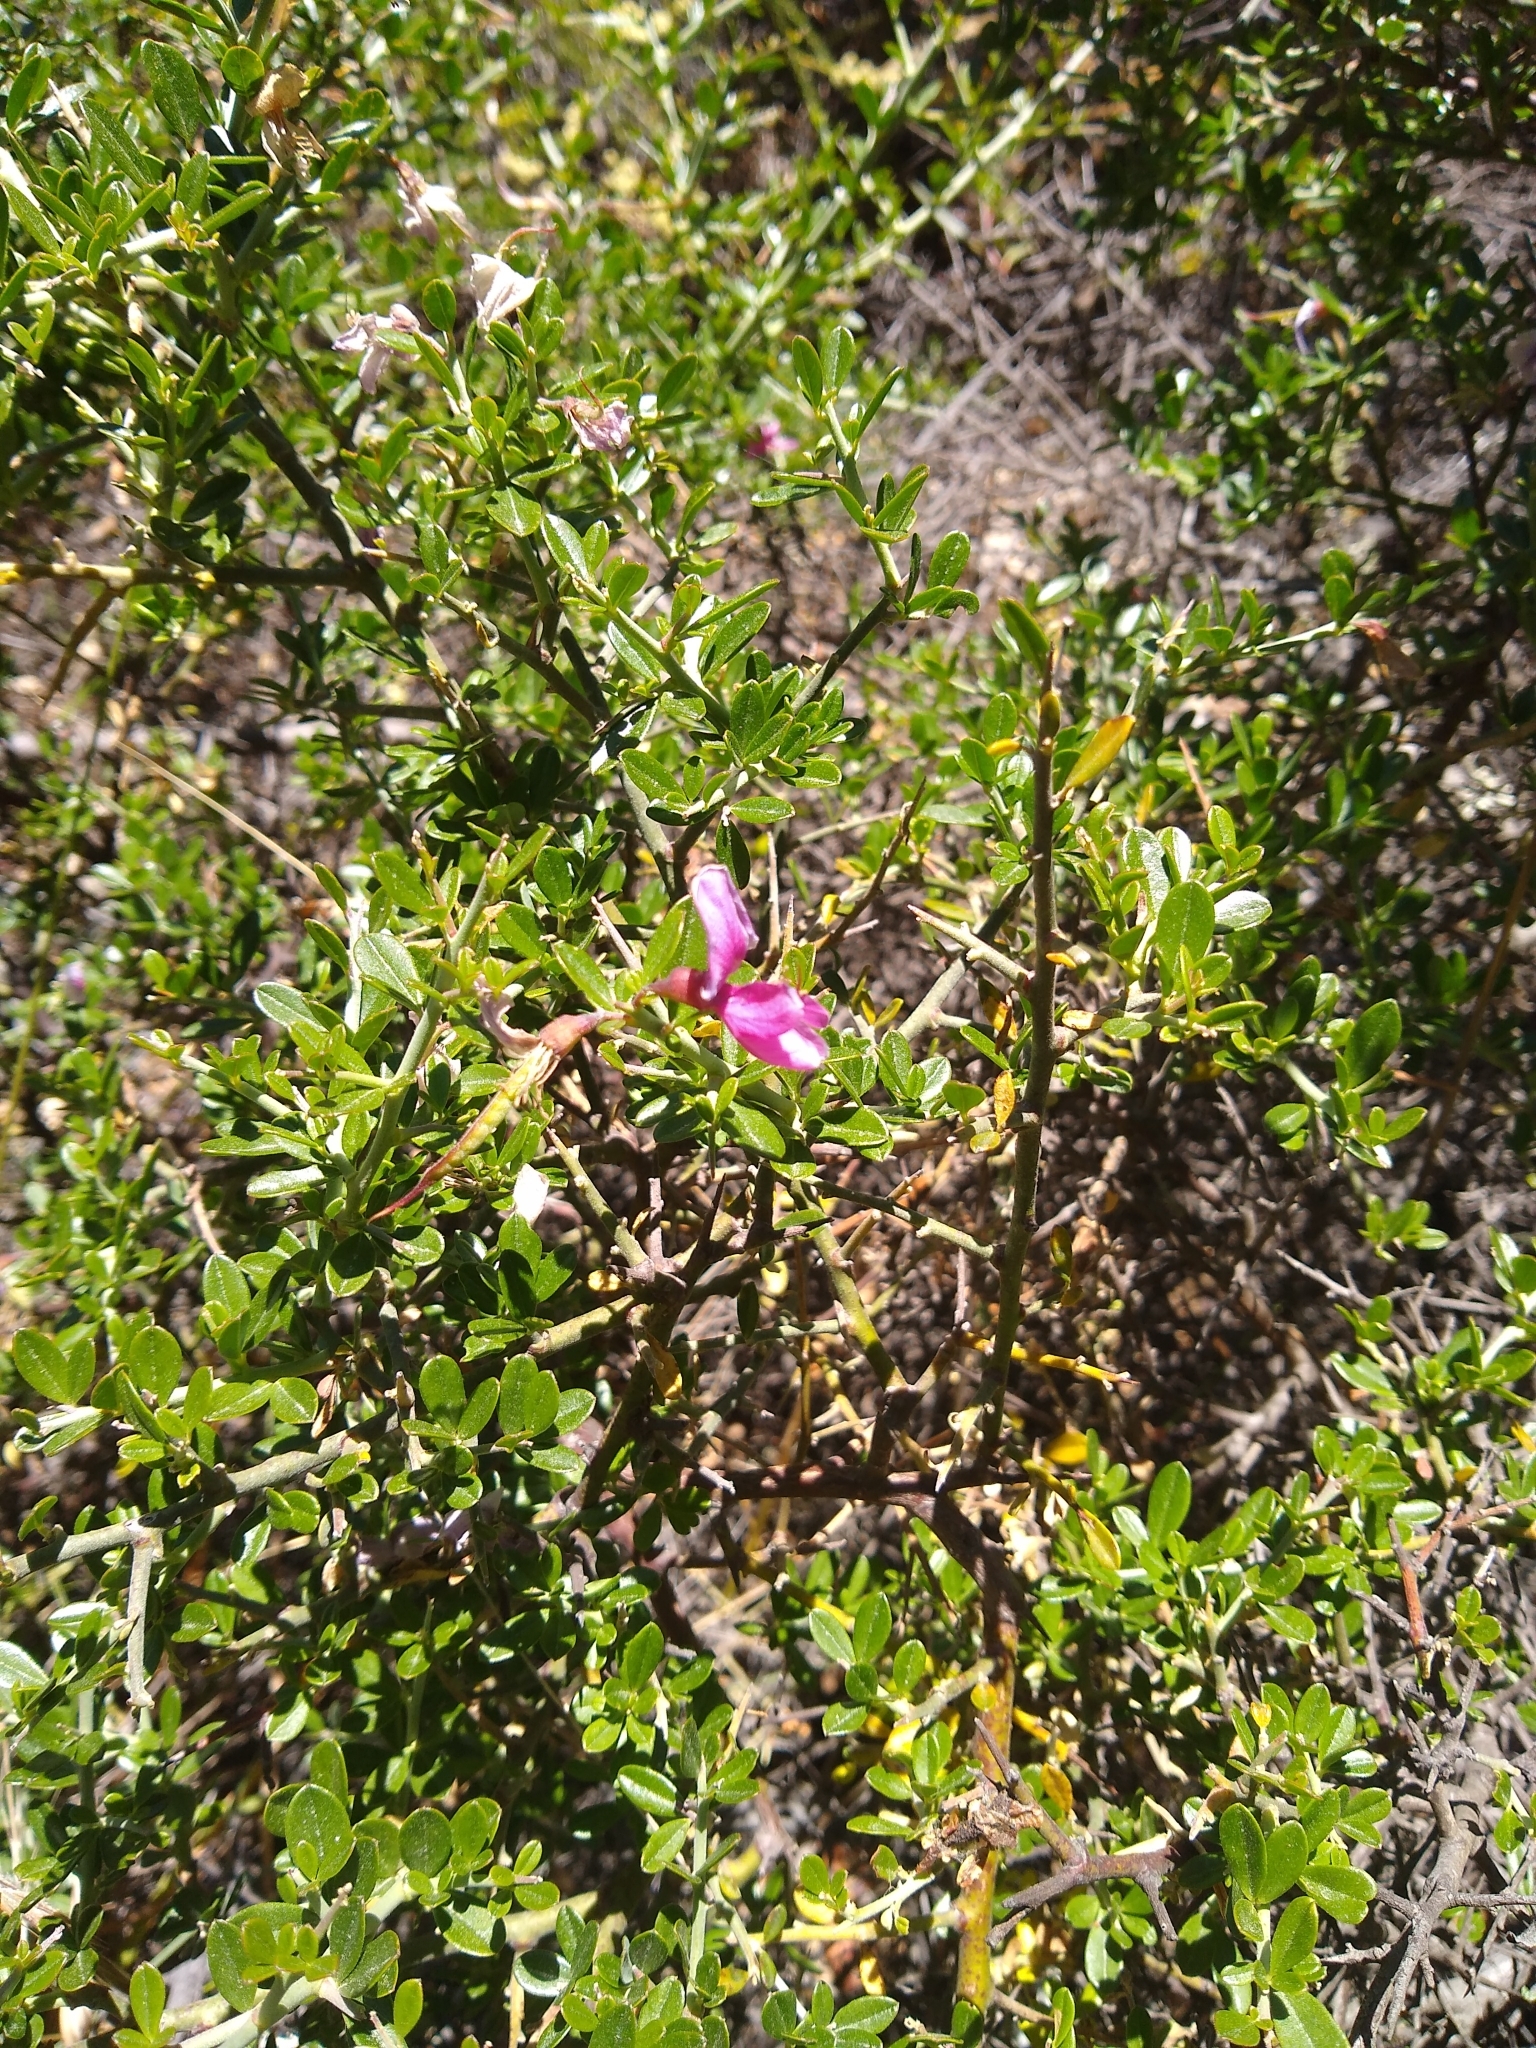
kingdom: Plantae
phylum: Tracheophyta
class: Magnoliopsida
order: Fabales
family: Fabaceae
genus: Pickeringia
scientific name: Pickeringia montana
